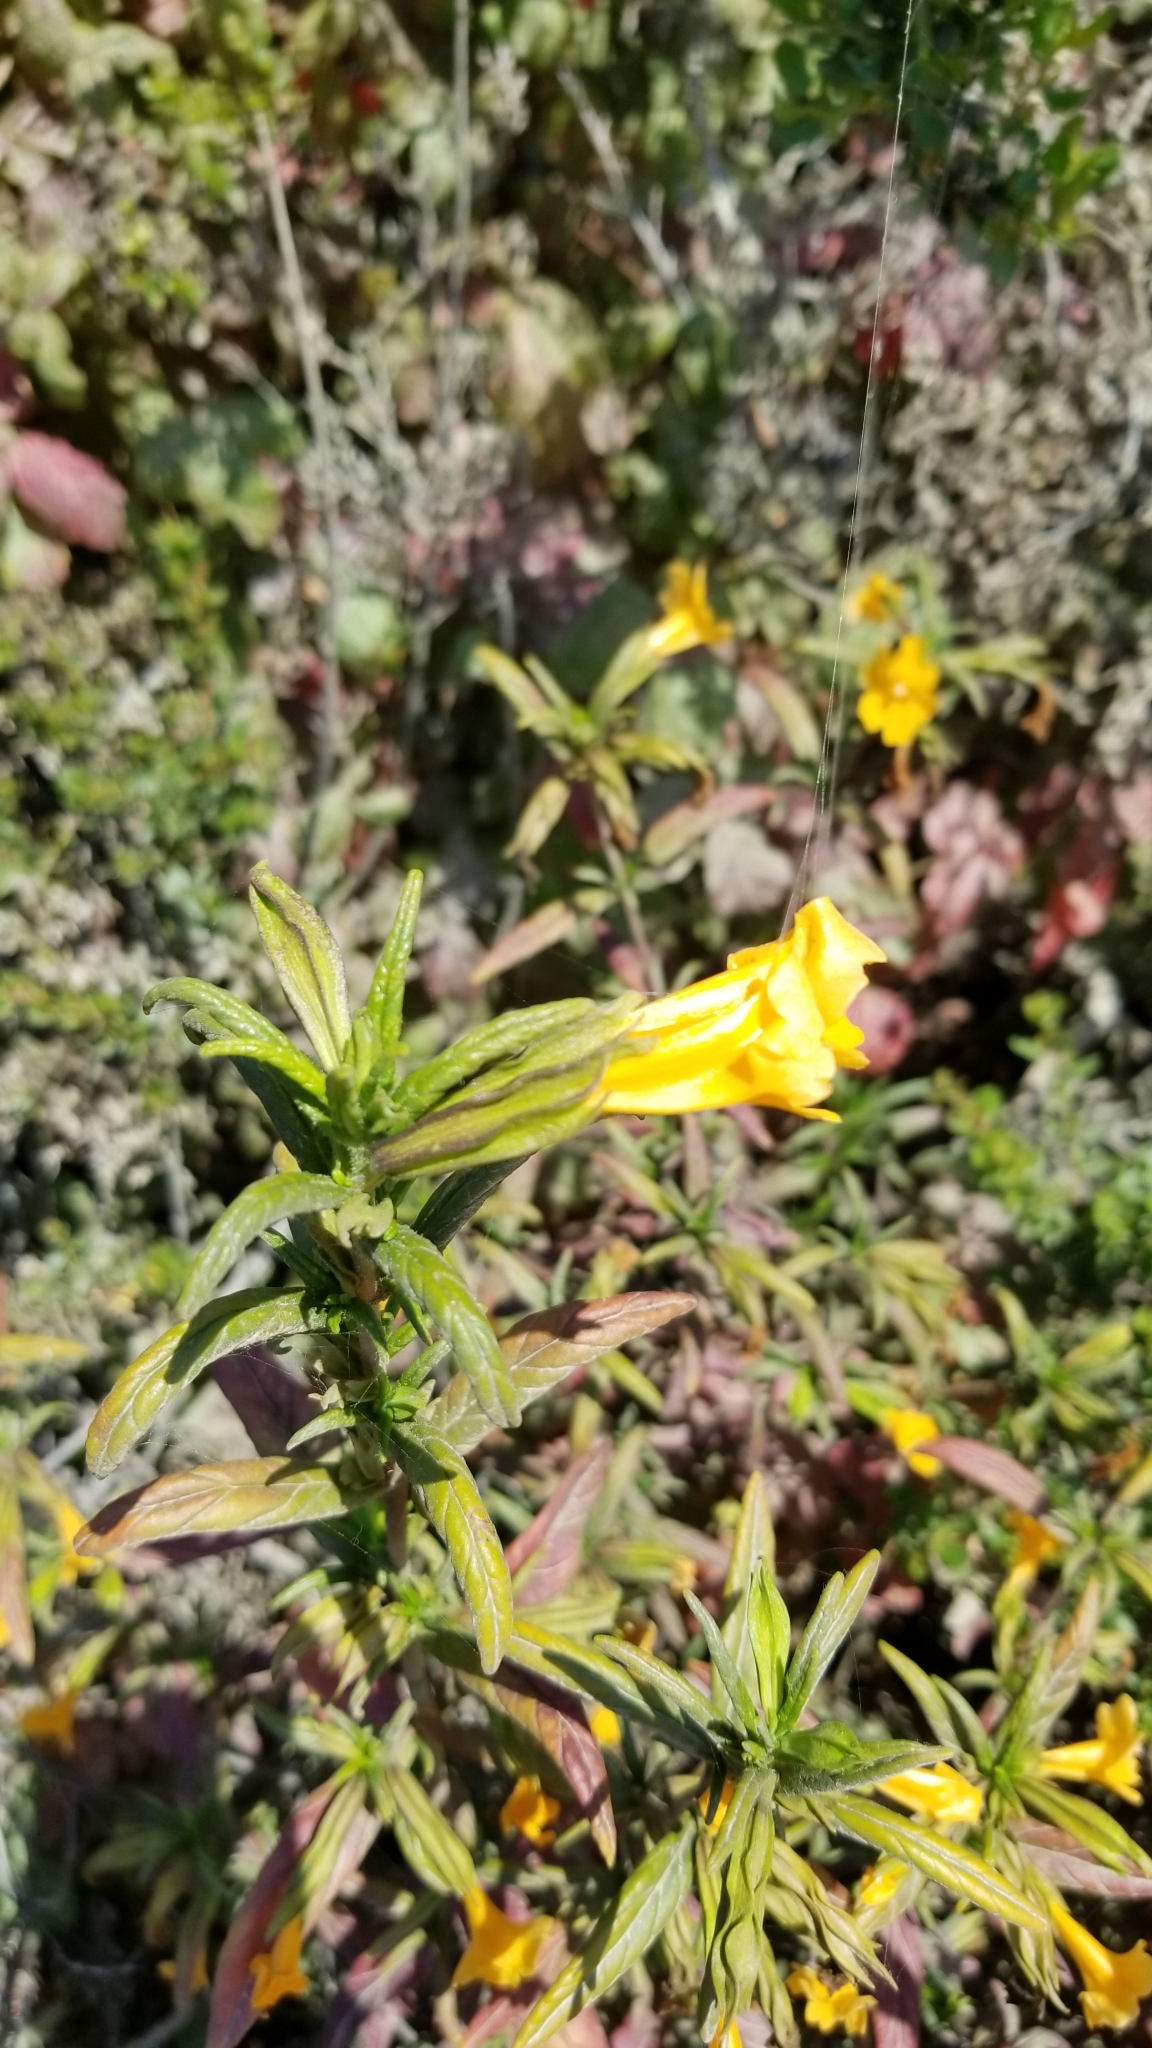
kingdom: Plantae
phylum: Tracheophyta
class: Magnoliopsida
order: Lamiales
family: Phrymaceae
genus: Diplacus
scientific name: Diplacus aurantiacus
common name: Bush monkey-flower
